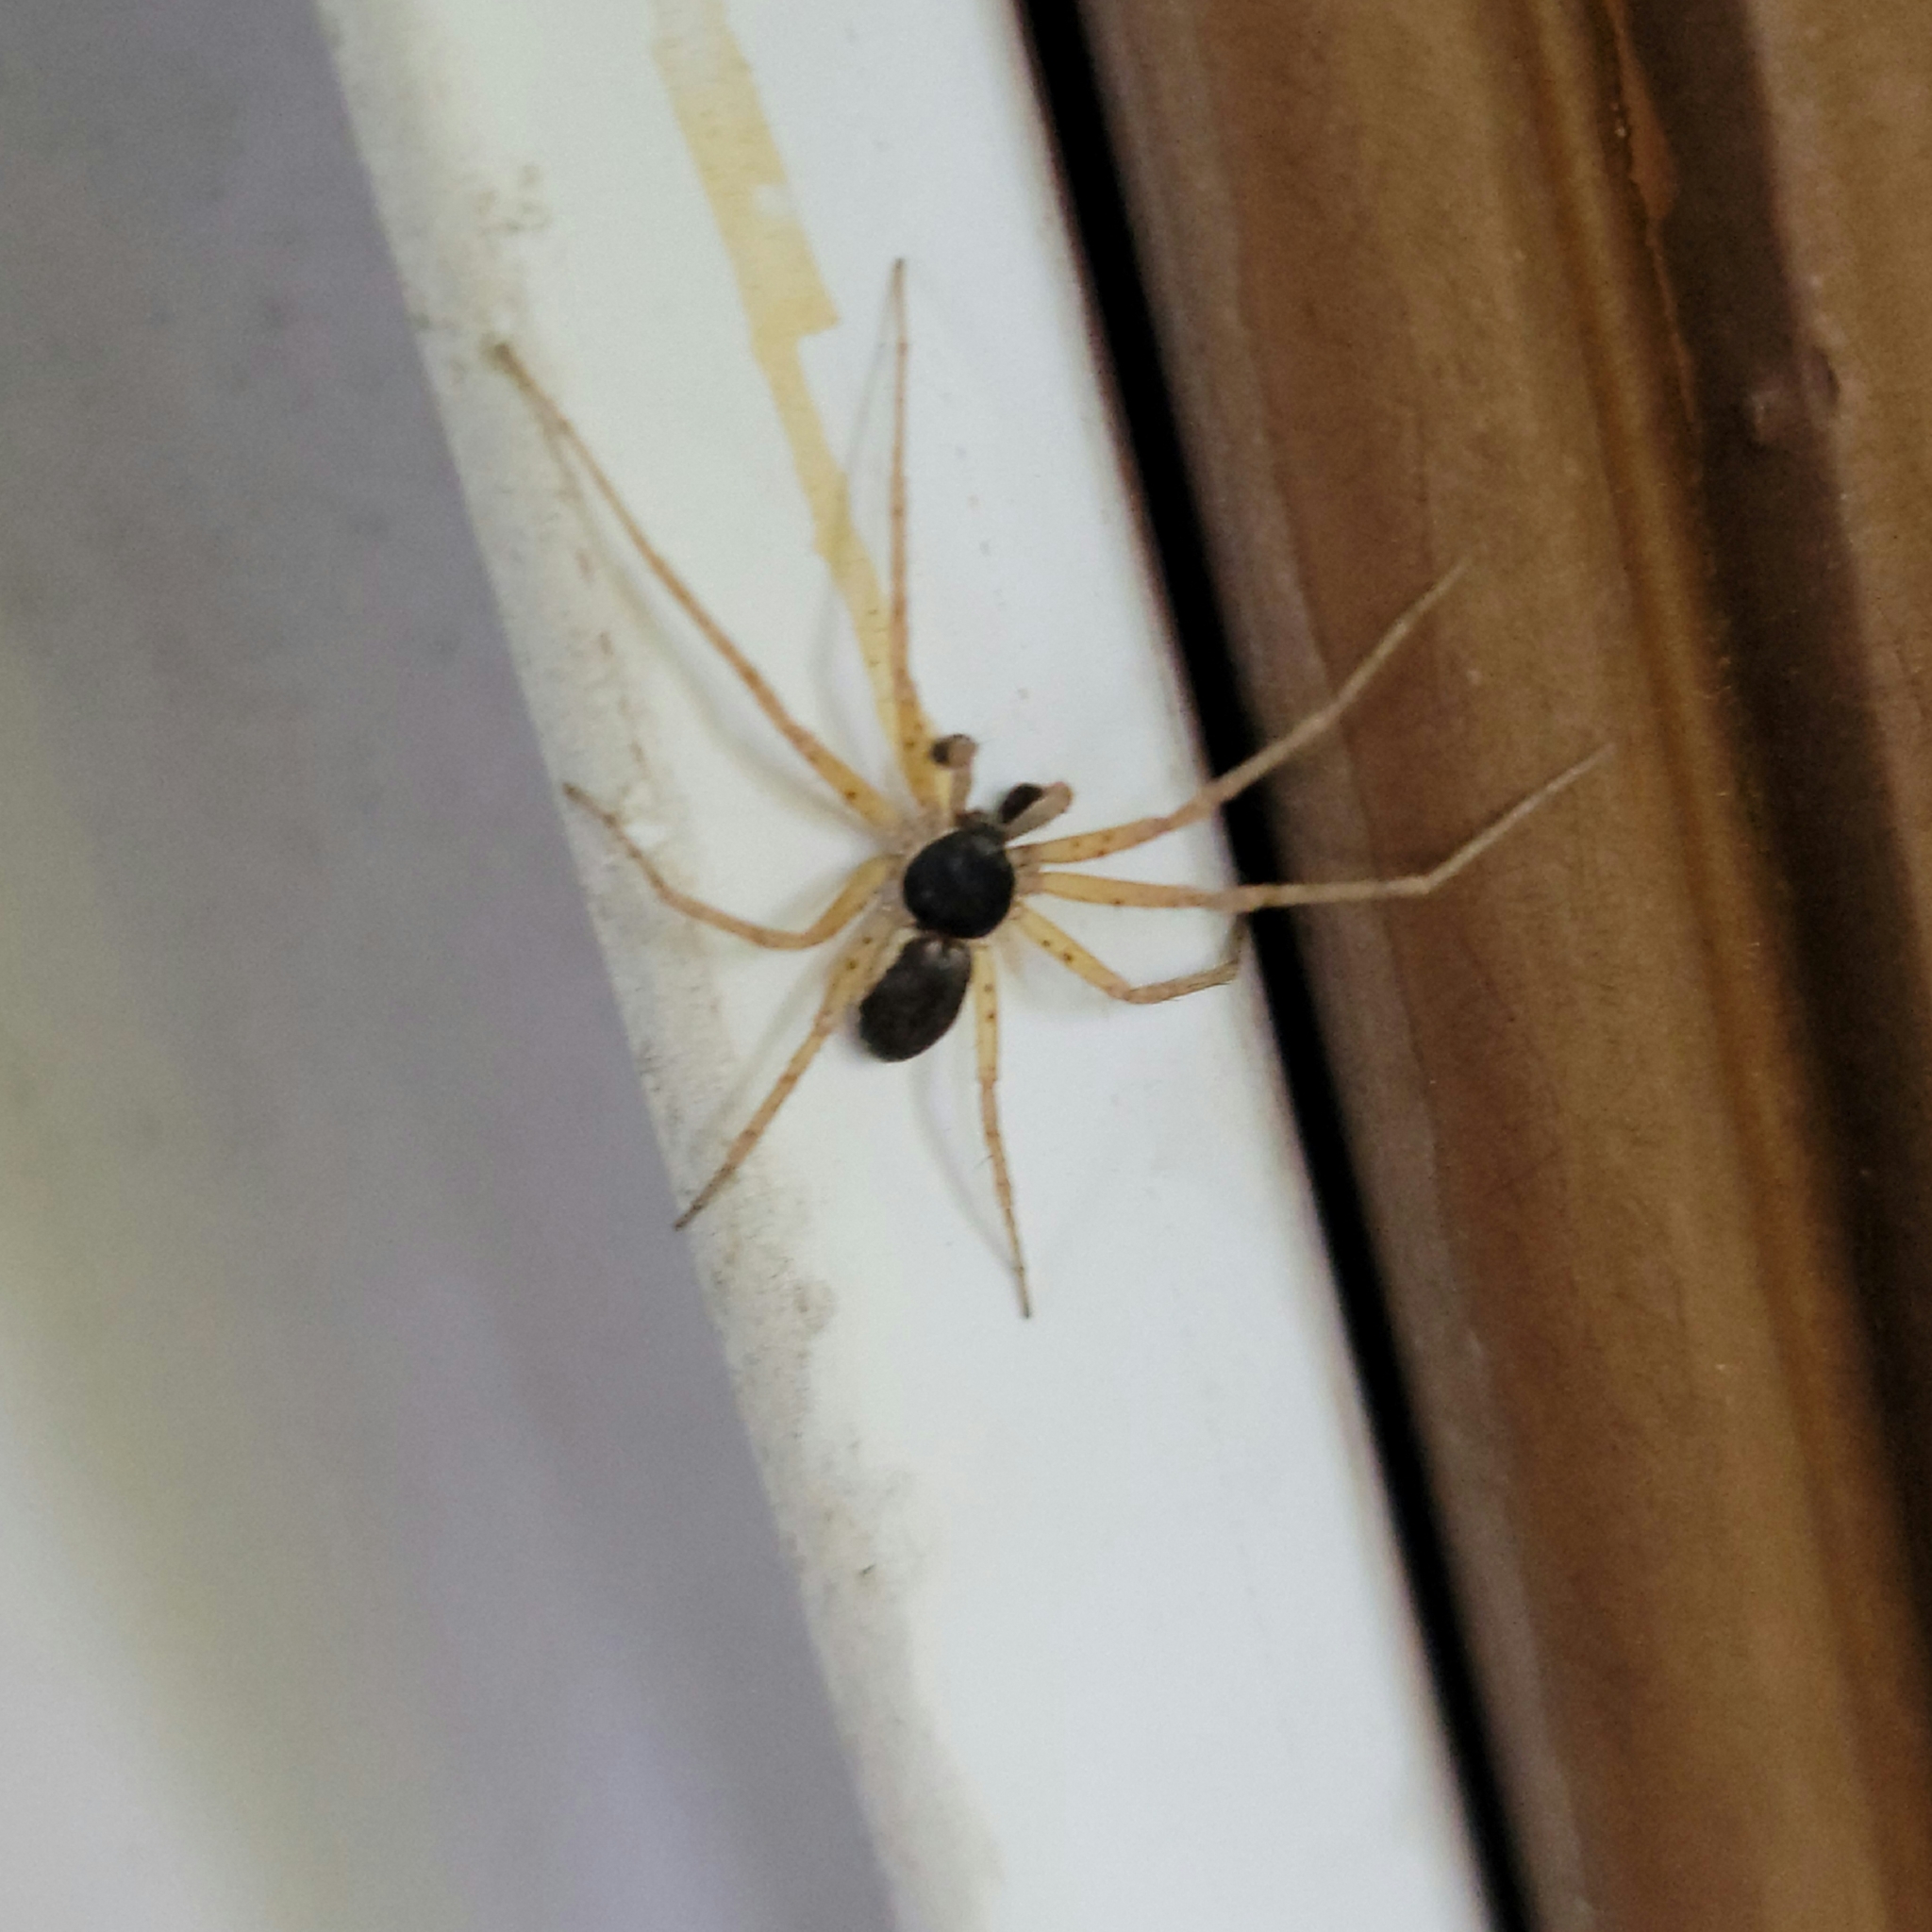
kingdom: Animalia
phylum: Arthropoda
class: Arachnida
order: Araneae
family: Philodromidae
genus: Philodromus
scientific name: Philodromus dispar
